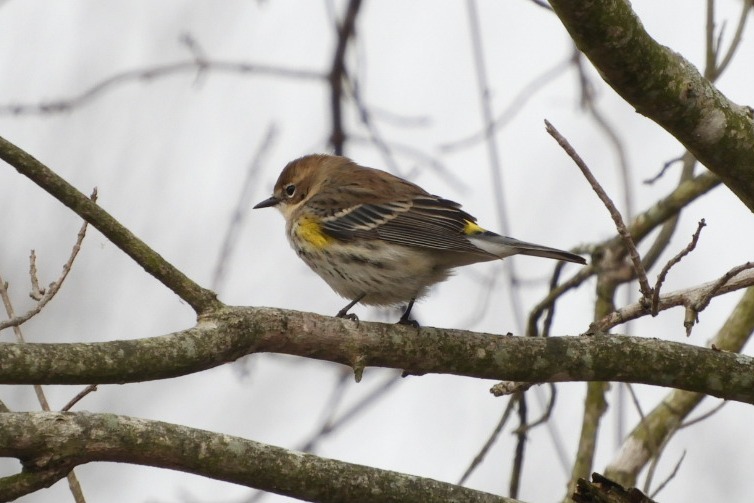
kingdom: Animalia
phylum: Chordata
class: Aves
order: Passeriformes
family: Parulidae
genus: Setophaga
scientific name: Setophaga coronata
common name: Myrtle warbler
